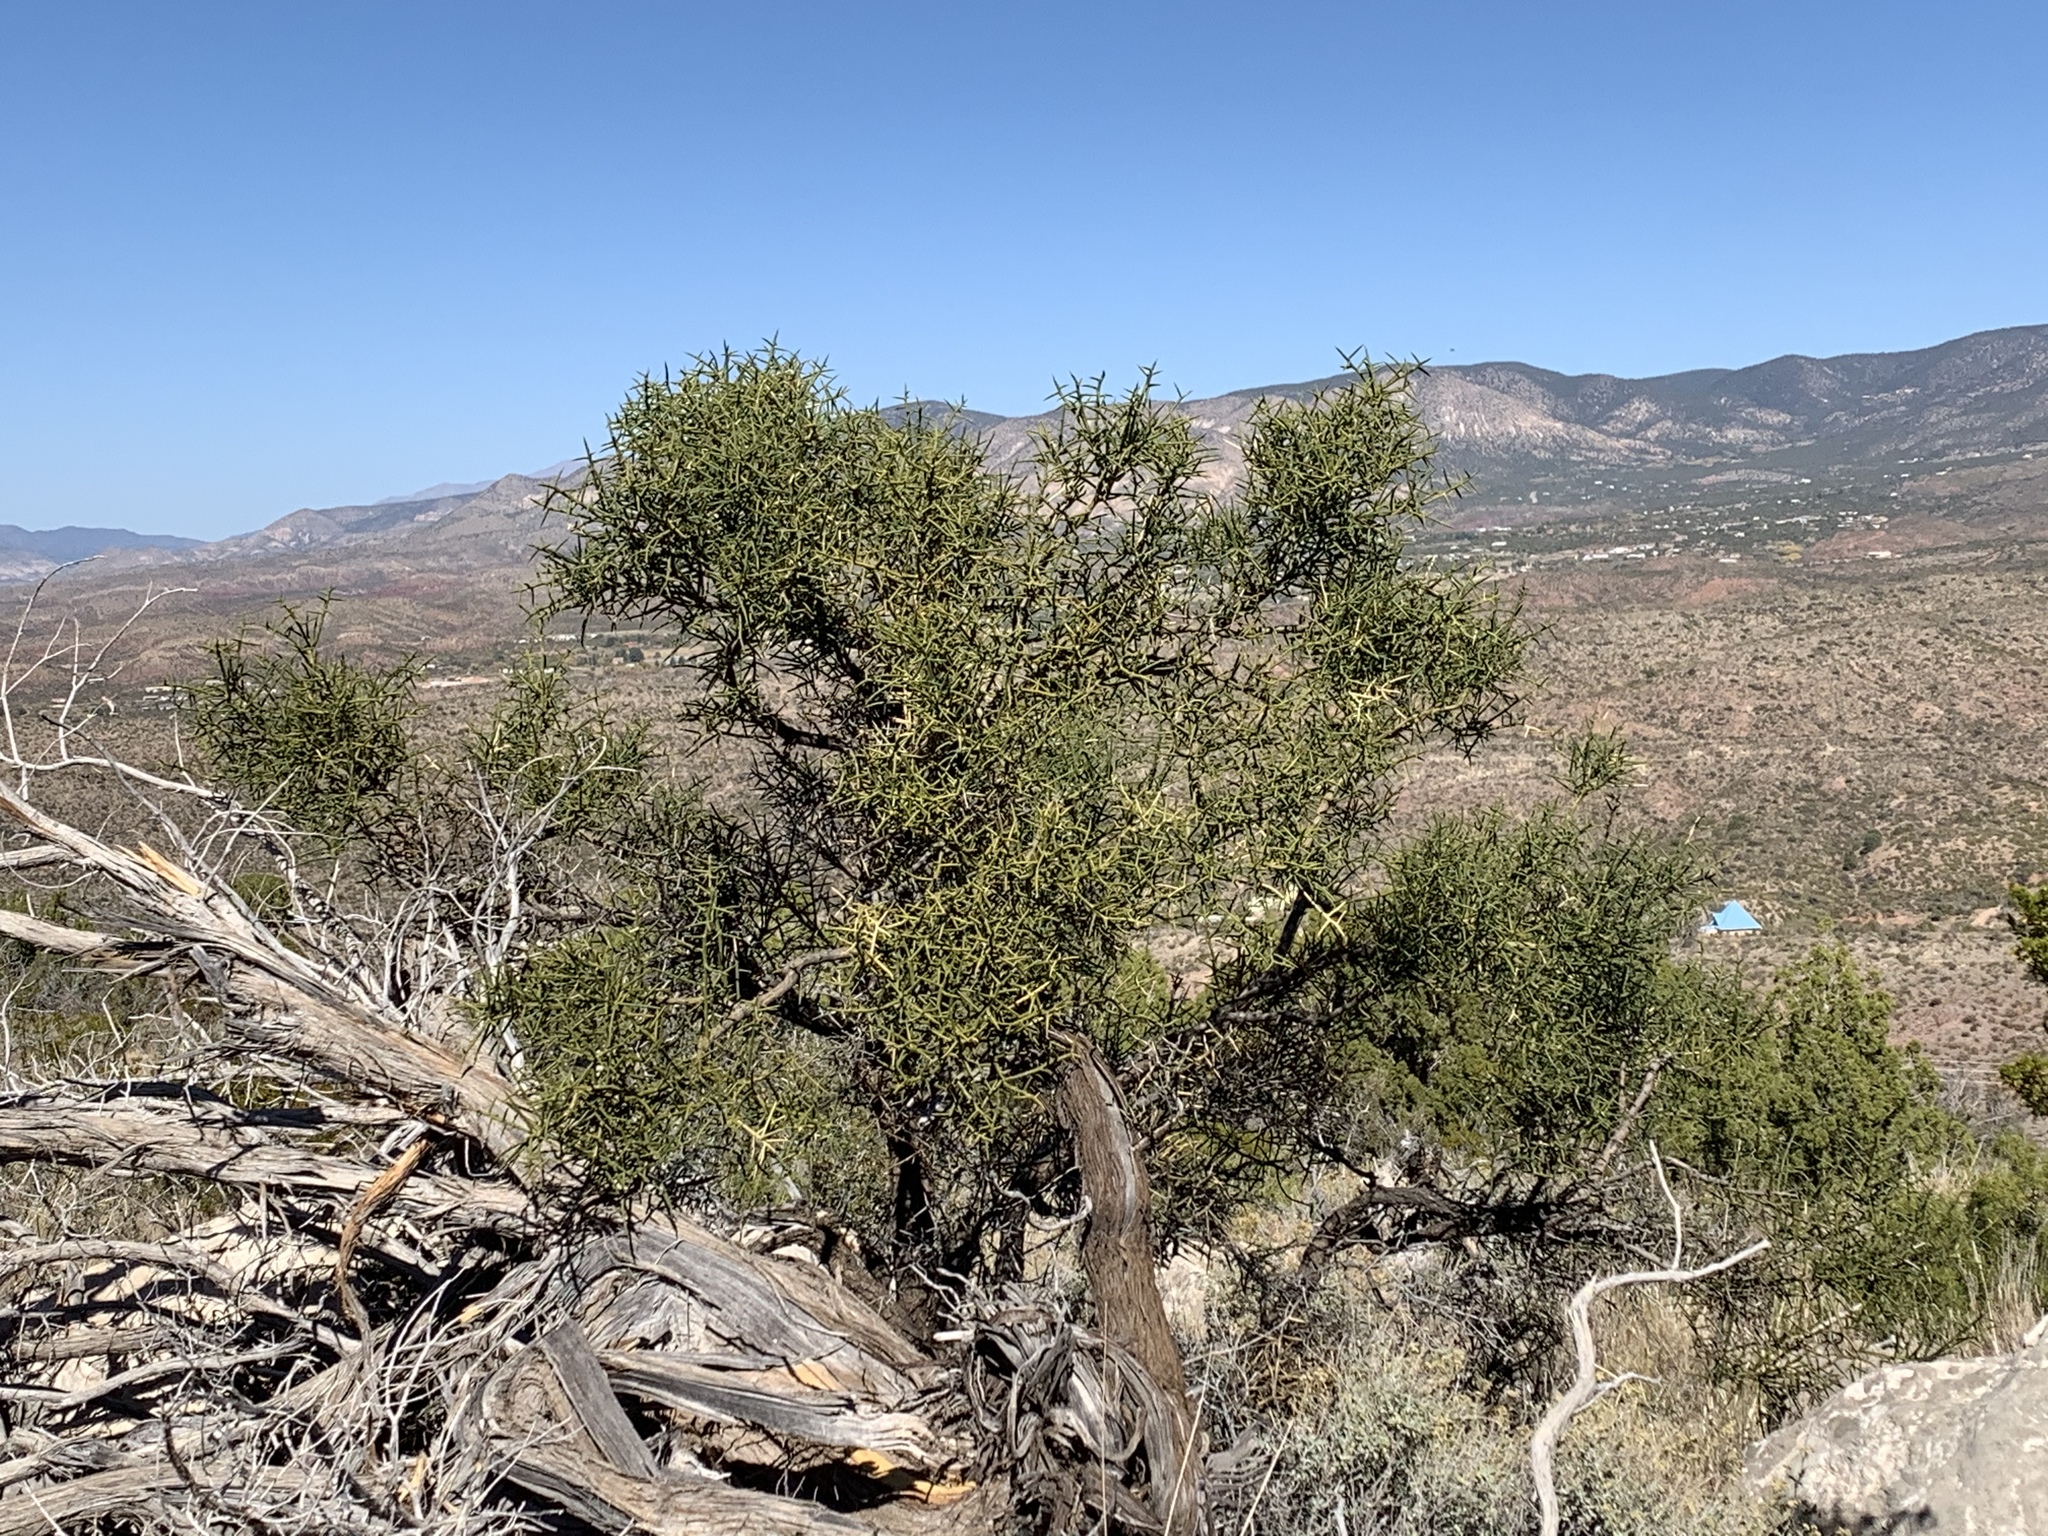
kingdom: Plantae
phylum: Tracheophyta
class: Magnoliopsida
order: Brassicales
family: Koeberliniaceae
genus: Koeberlinia
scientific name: Koeberlinia spinosa
